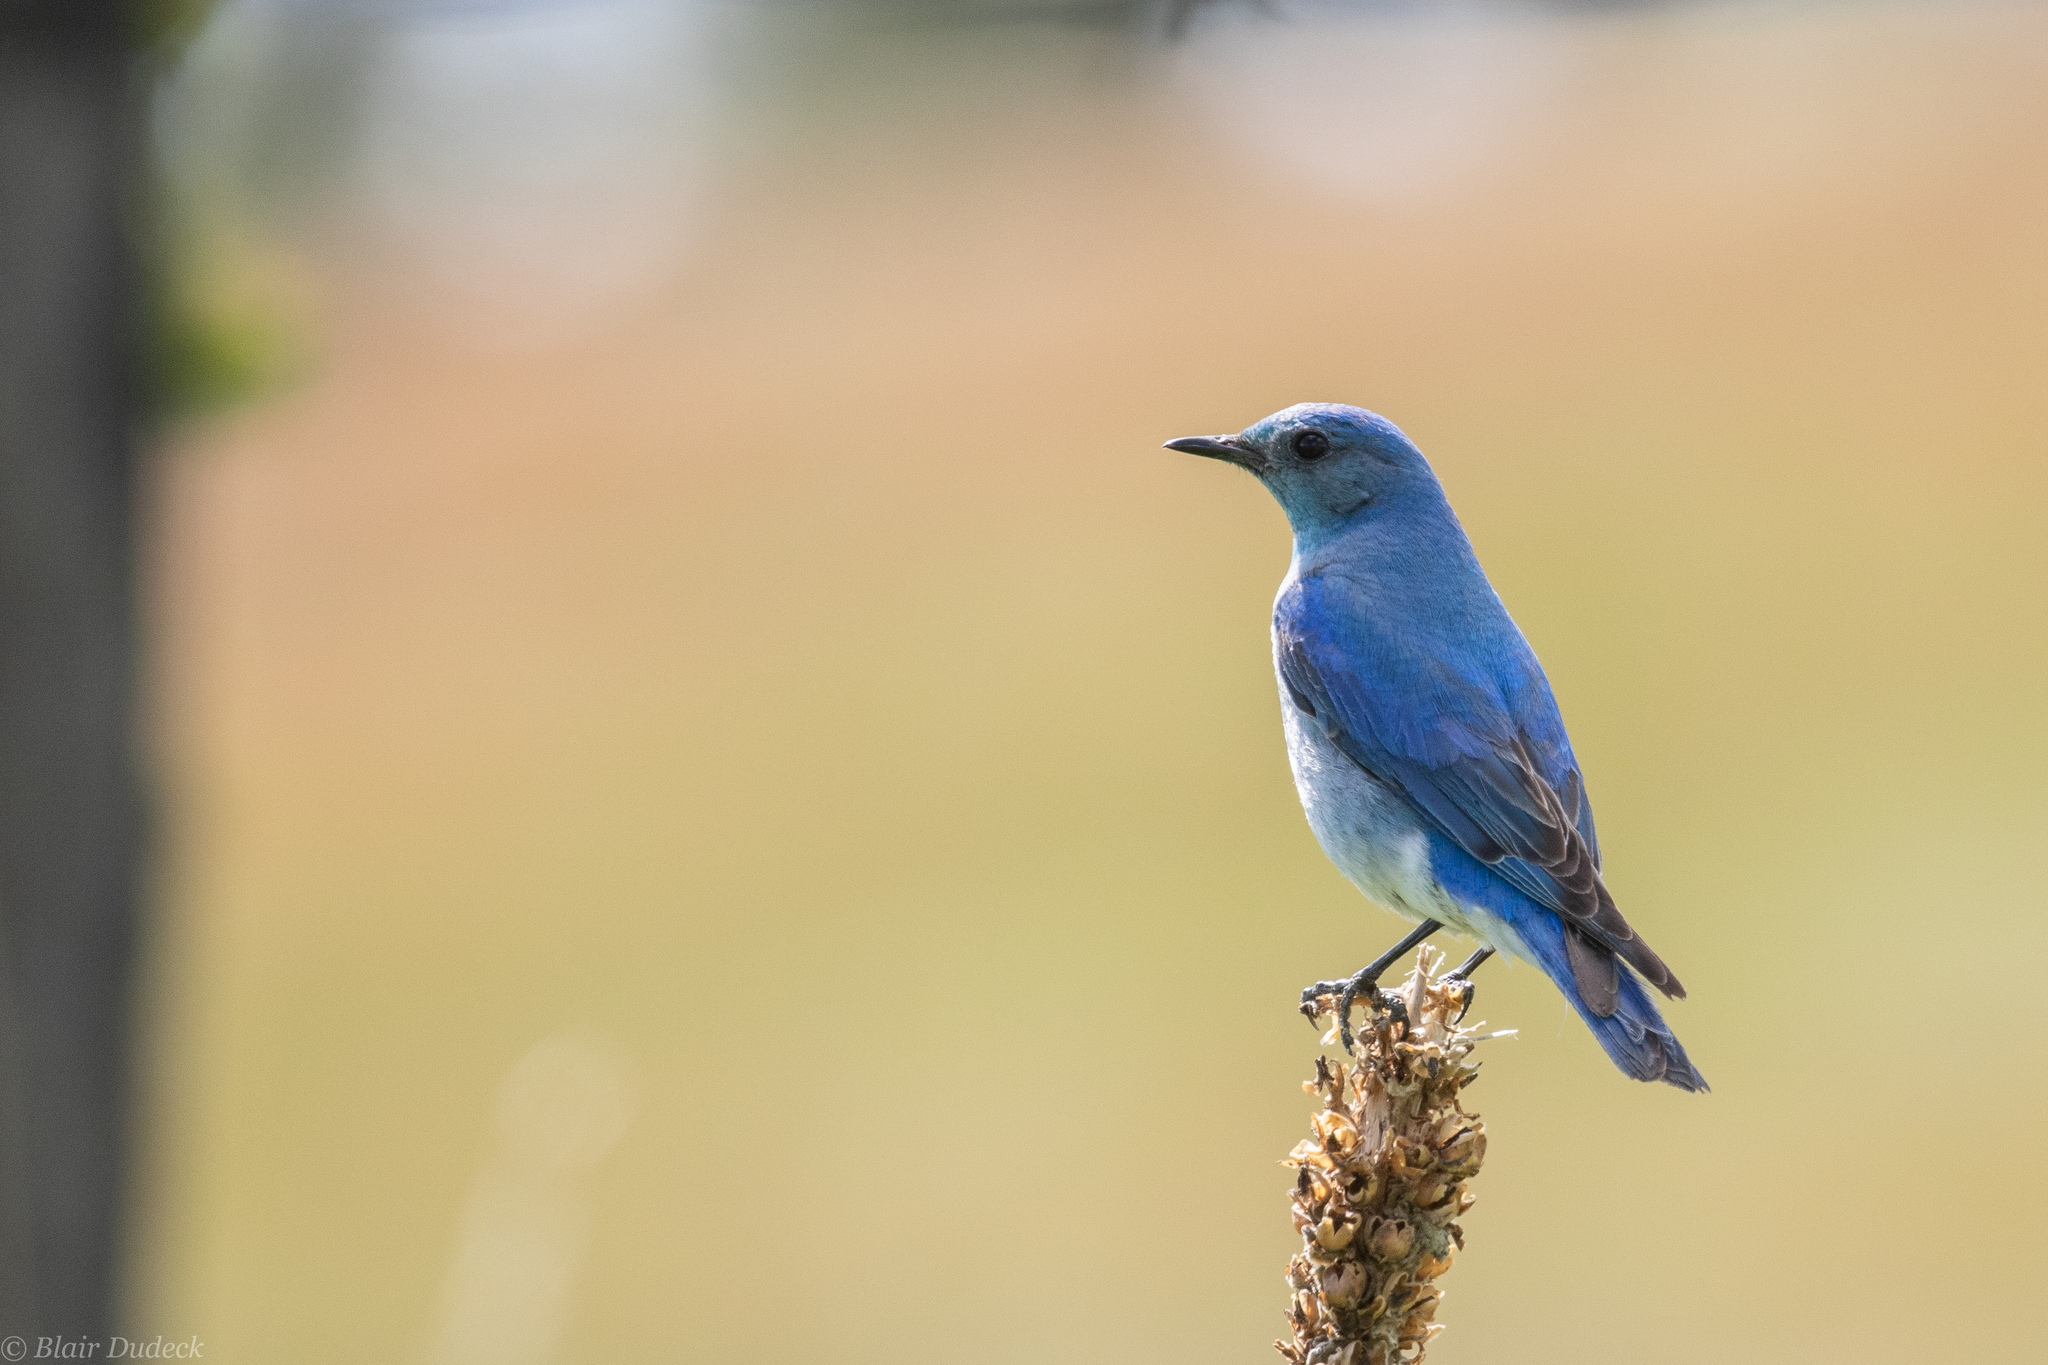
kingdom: Animalia
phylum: Chordata
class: Aves
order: Passeriformes
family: Turdidae
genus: Sialia
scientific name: Sialia currucoides
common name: Mountain bluebird
